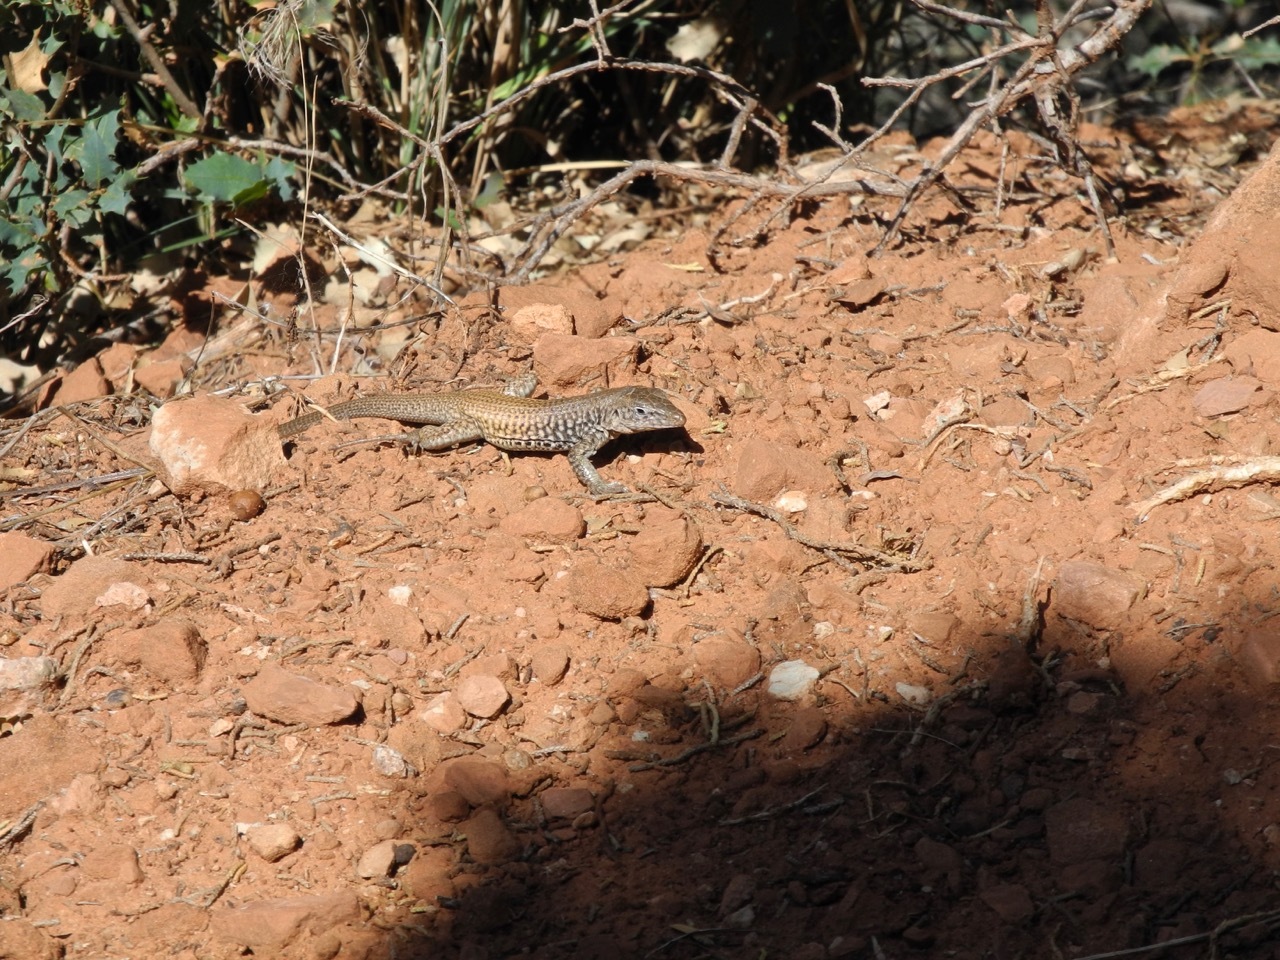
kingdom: Animalia
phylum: Chordata
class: Squamata
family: Teiidae
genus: Aspidoscelis
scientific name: Aspidoscelis tigris
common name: Tiger whiptail
